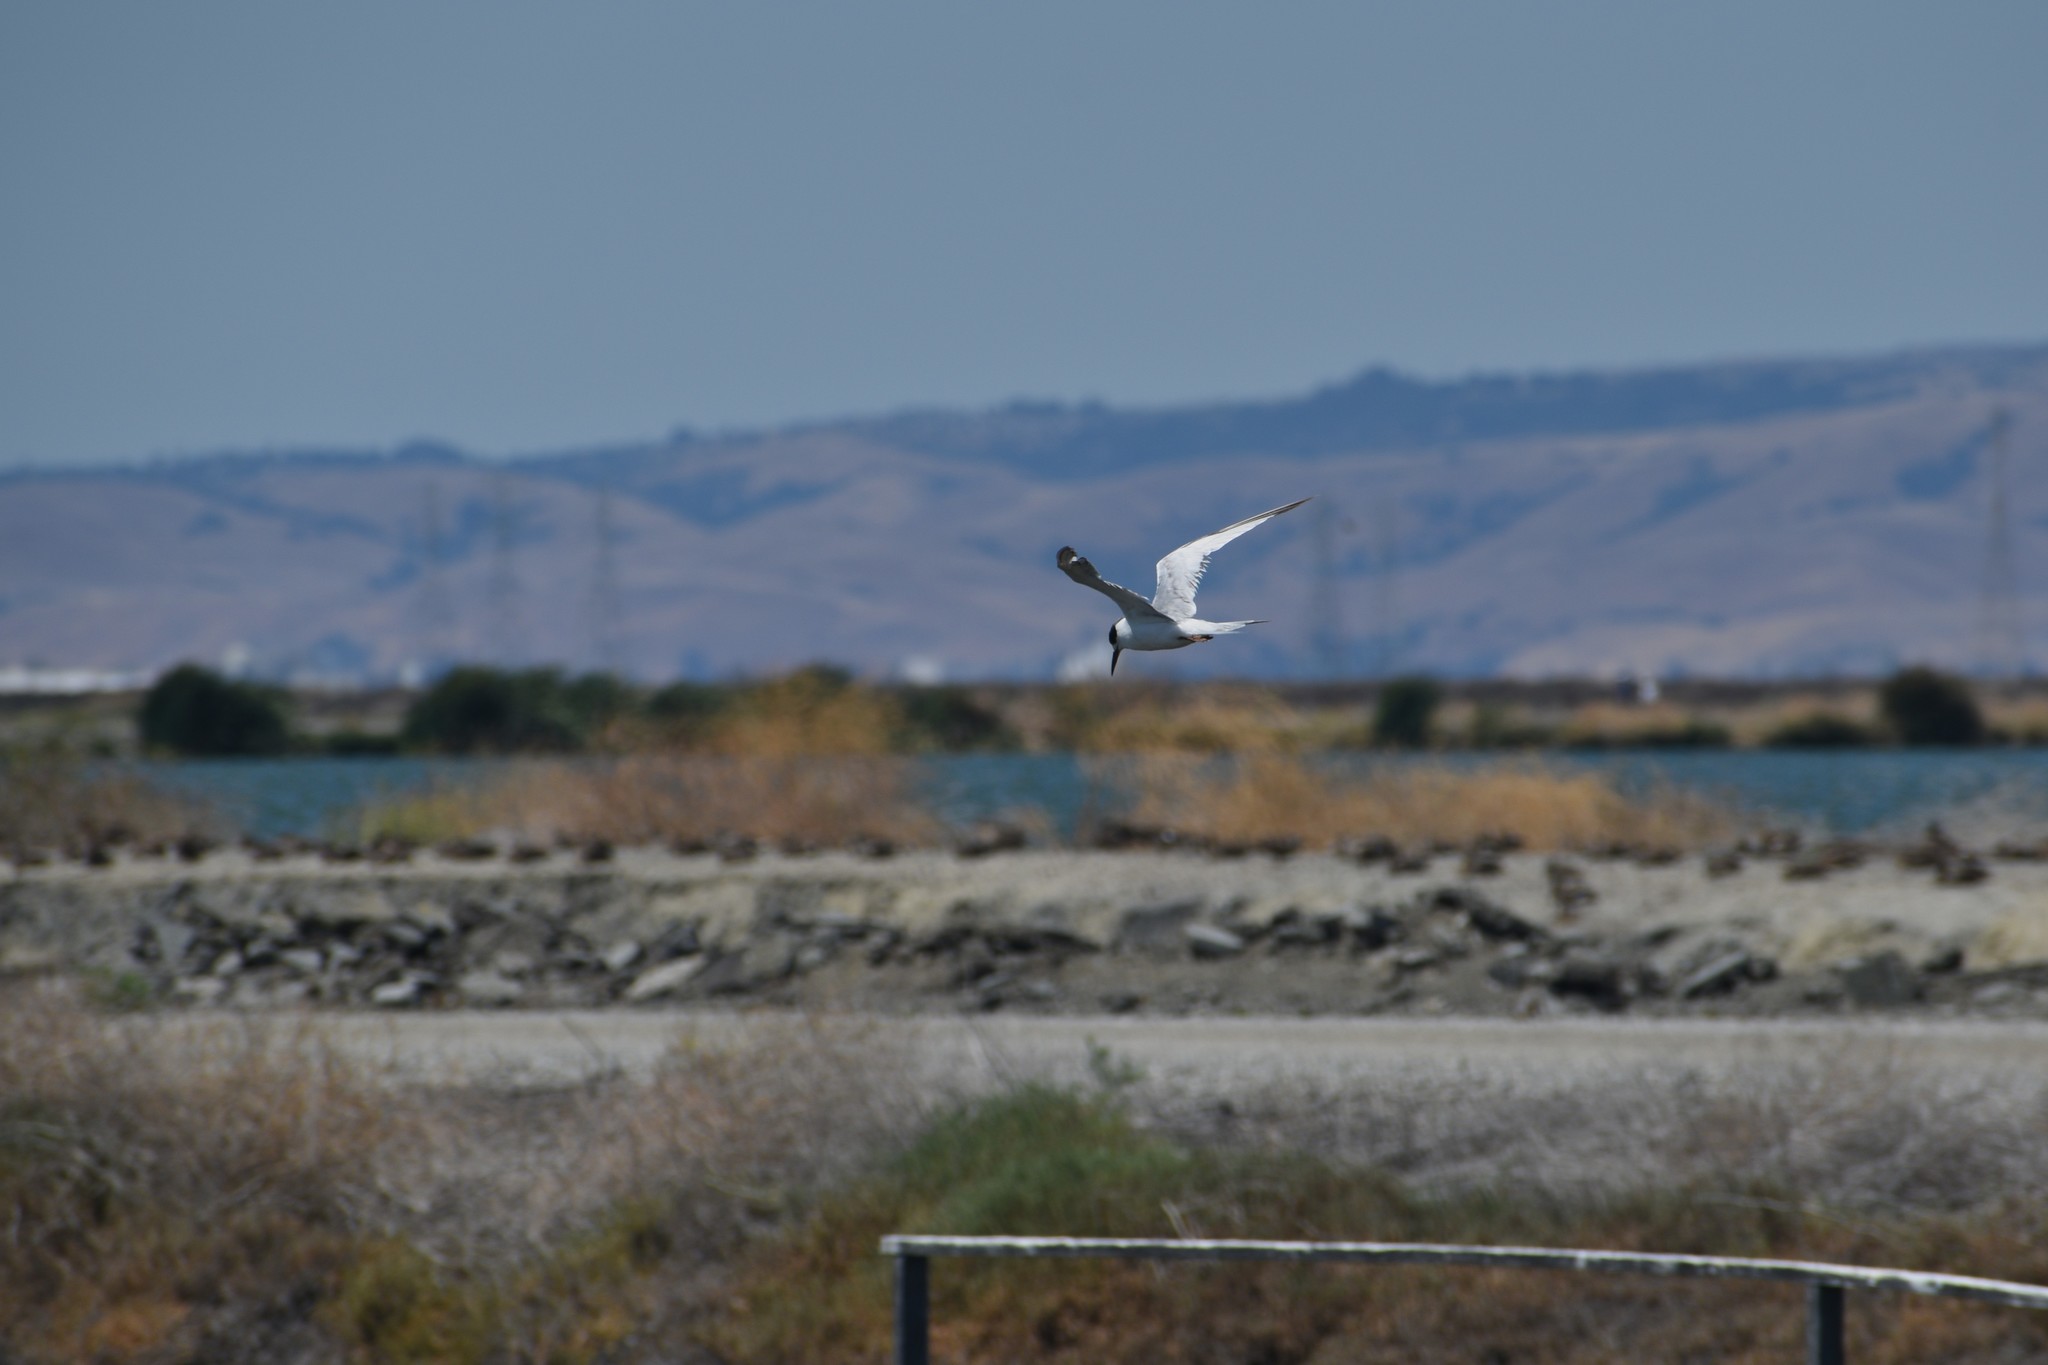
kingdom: Animalia
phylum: Chordata
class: Aves
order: Charadriiformes
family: Laridae
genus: Sterna
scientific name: Sterna forsteri
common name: Forster's tern
